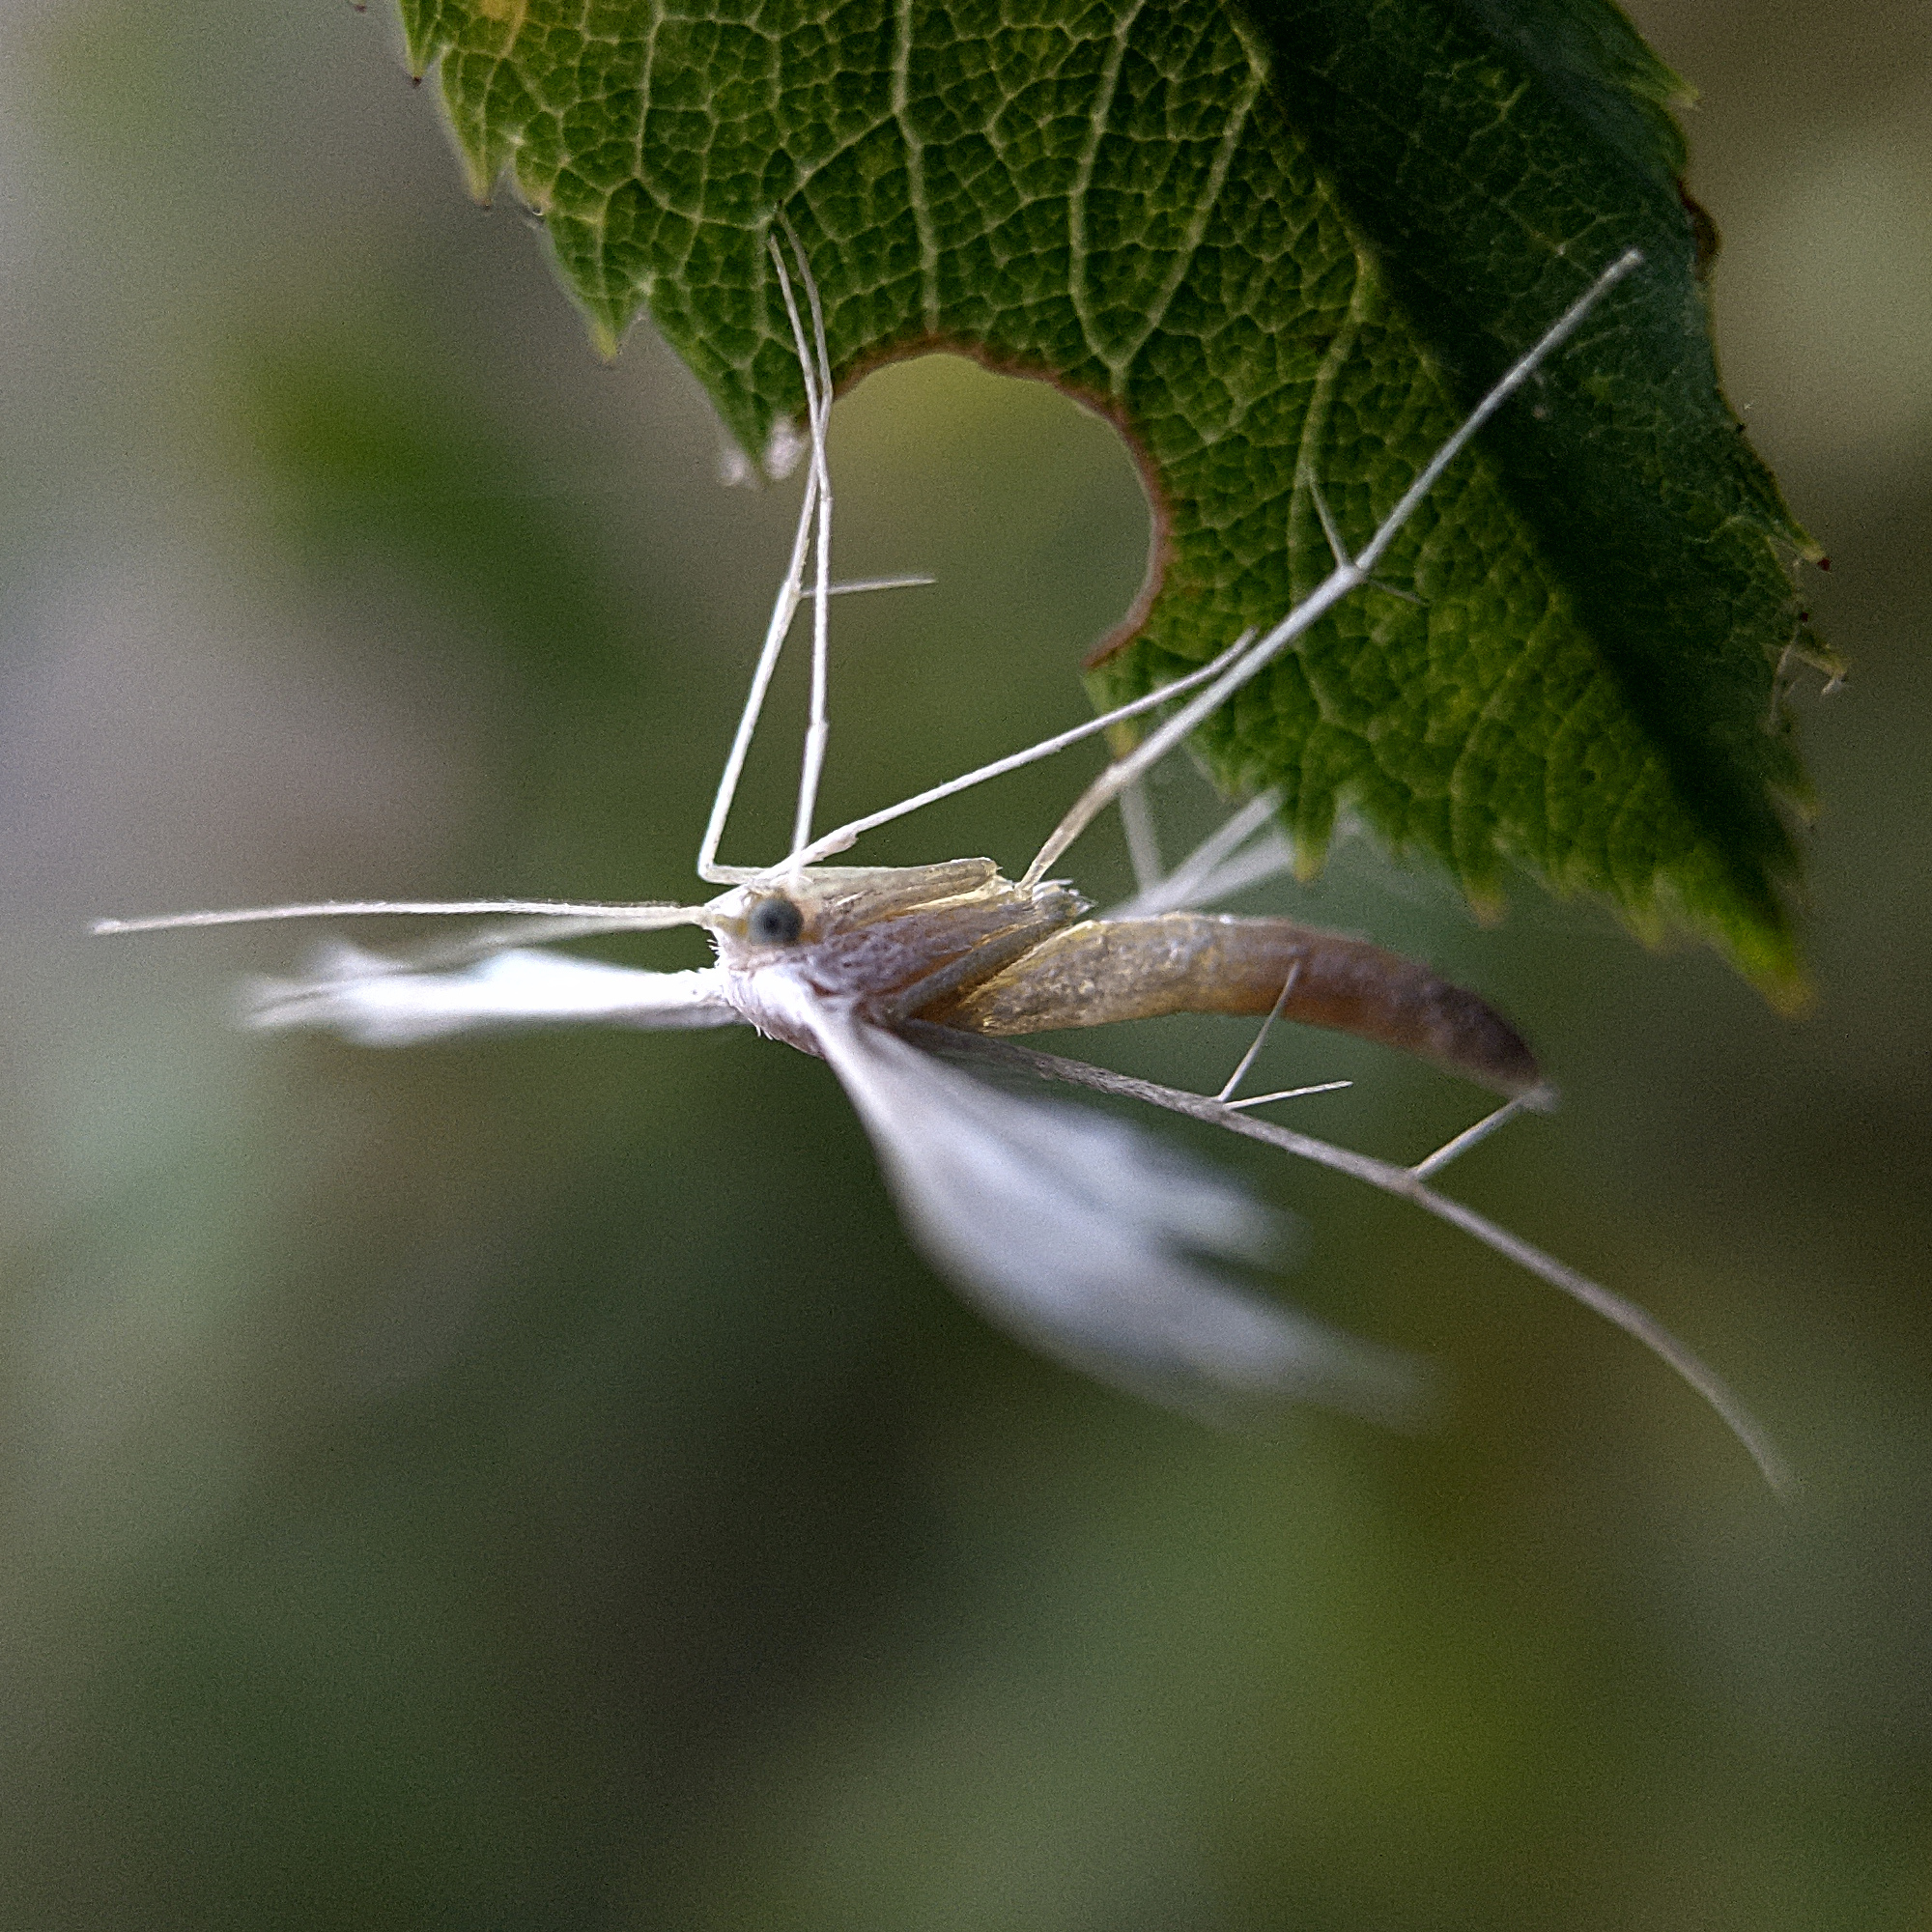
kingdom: Animalia
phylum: Arthropoda
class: Insecta
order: Lepidoptera
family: Pterophoridae
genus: Pterophorus
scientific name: Pterophorus pentadactyla
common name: White plume moth
